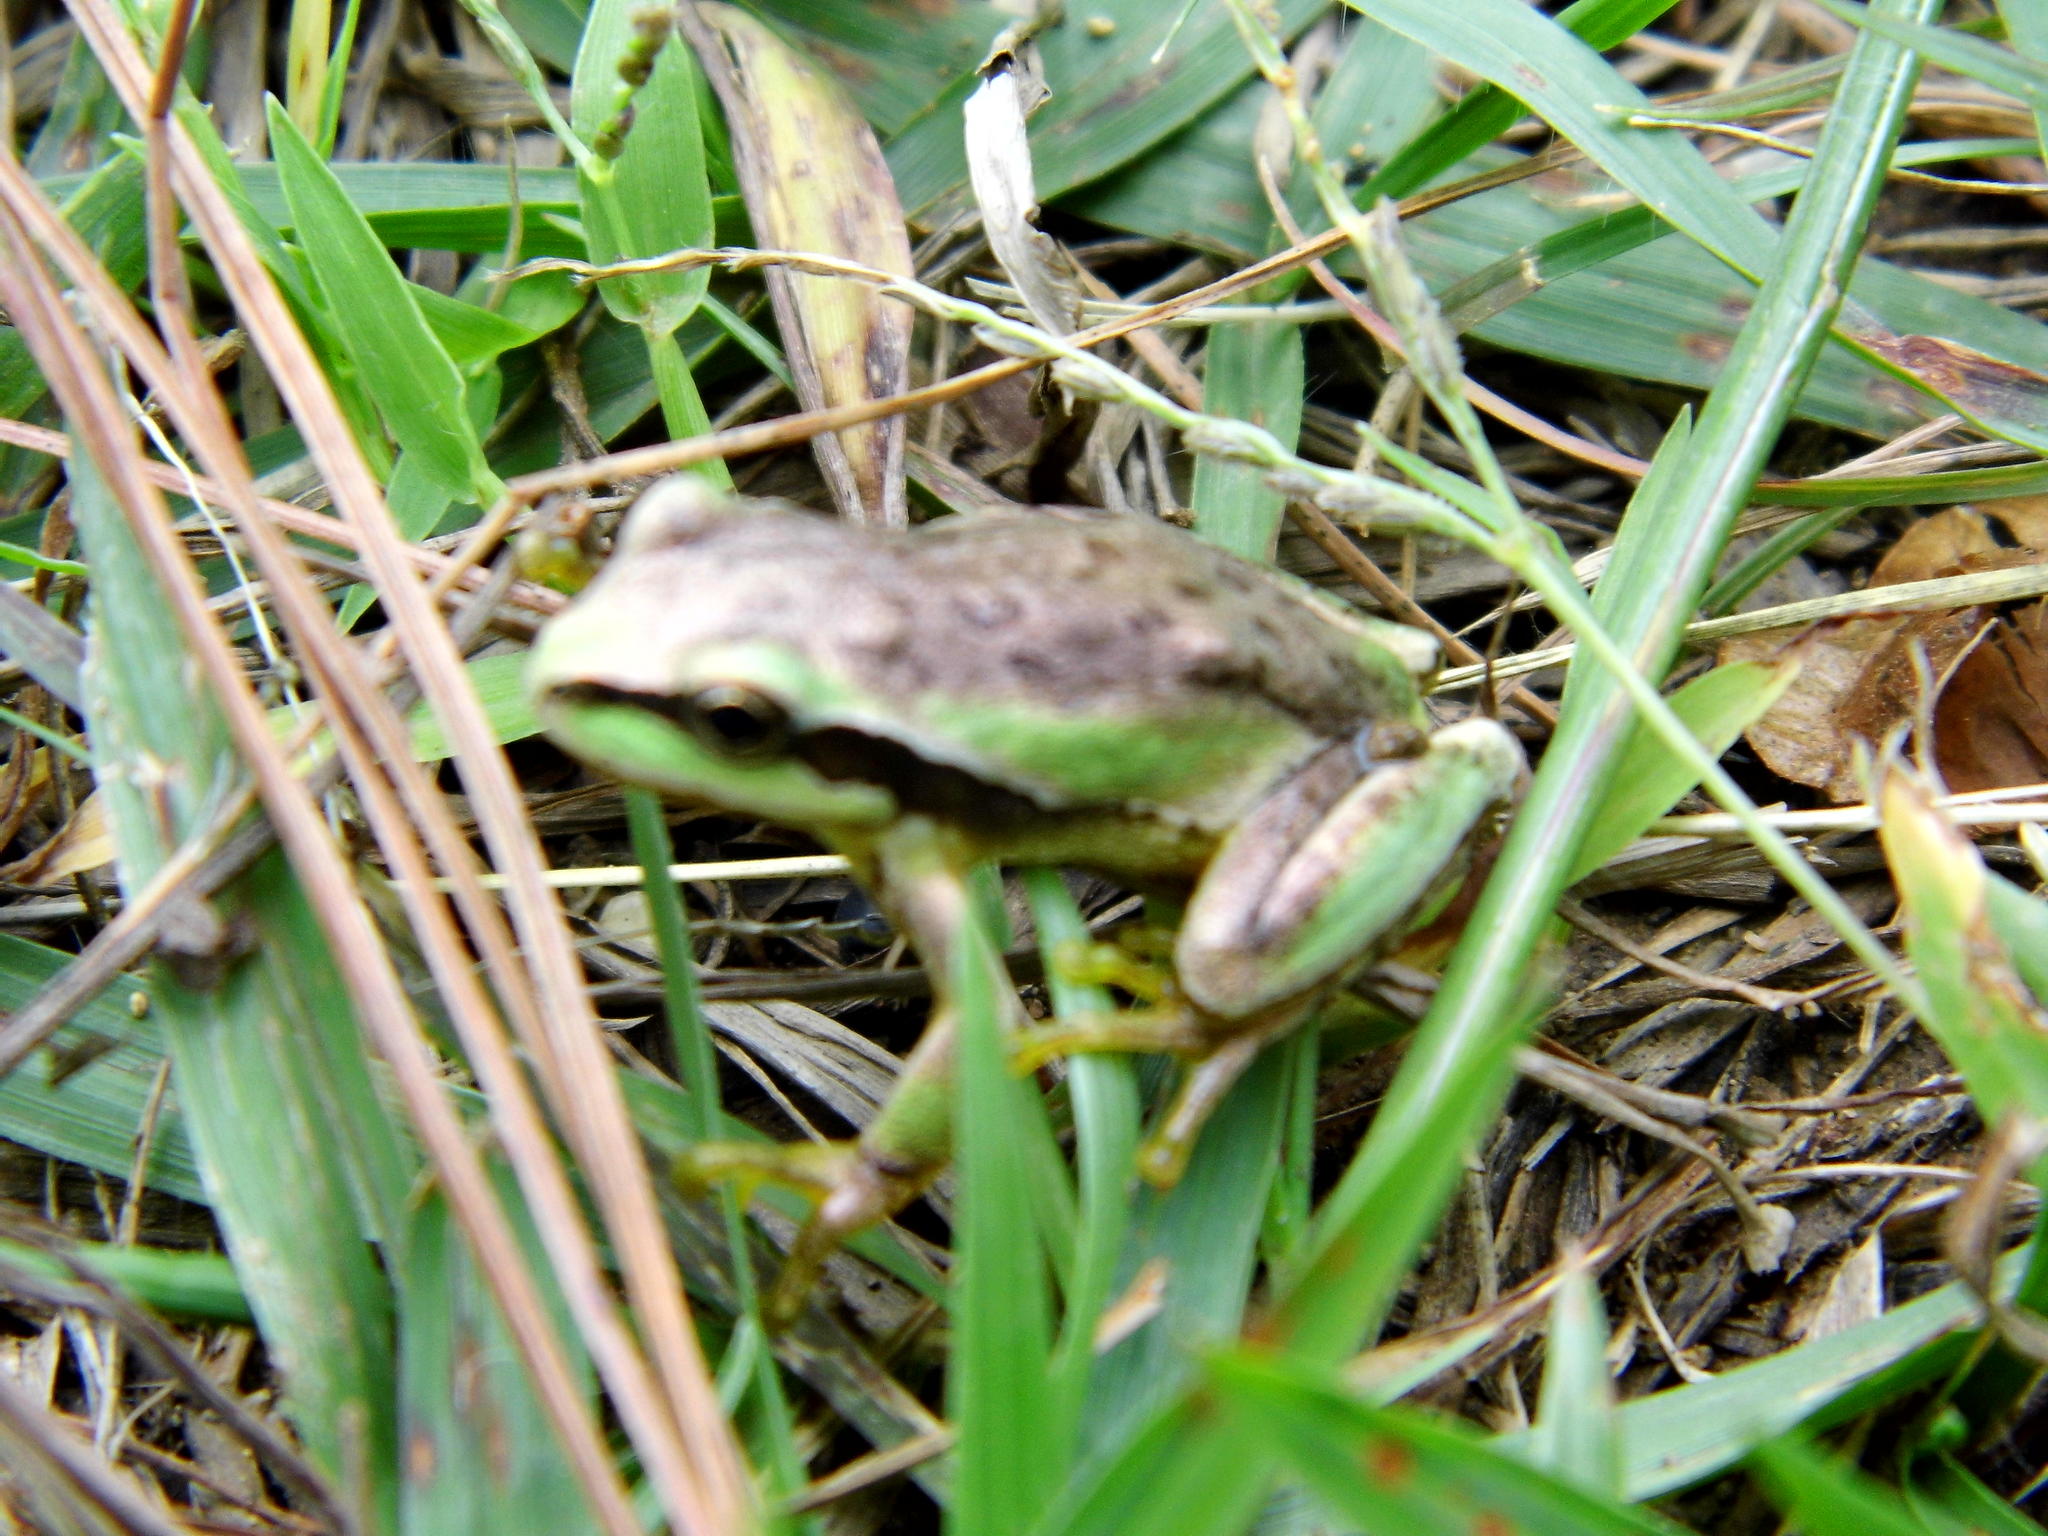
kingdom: Animalia
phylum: Chordata
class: Amphibia
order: Anura
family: Hylidae
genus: Dryophytes
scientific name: Dryophytes euphorbiaceus
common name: Southern highland treefrog
